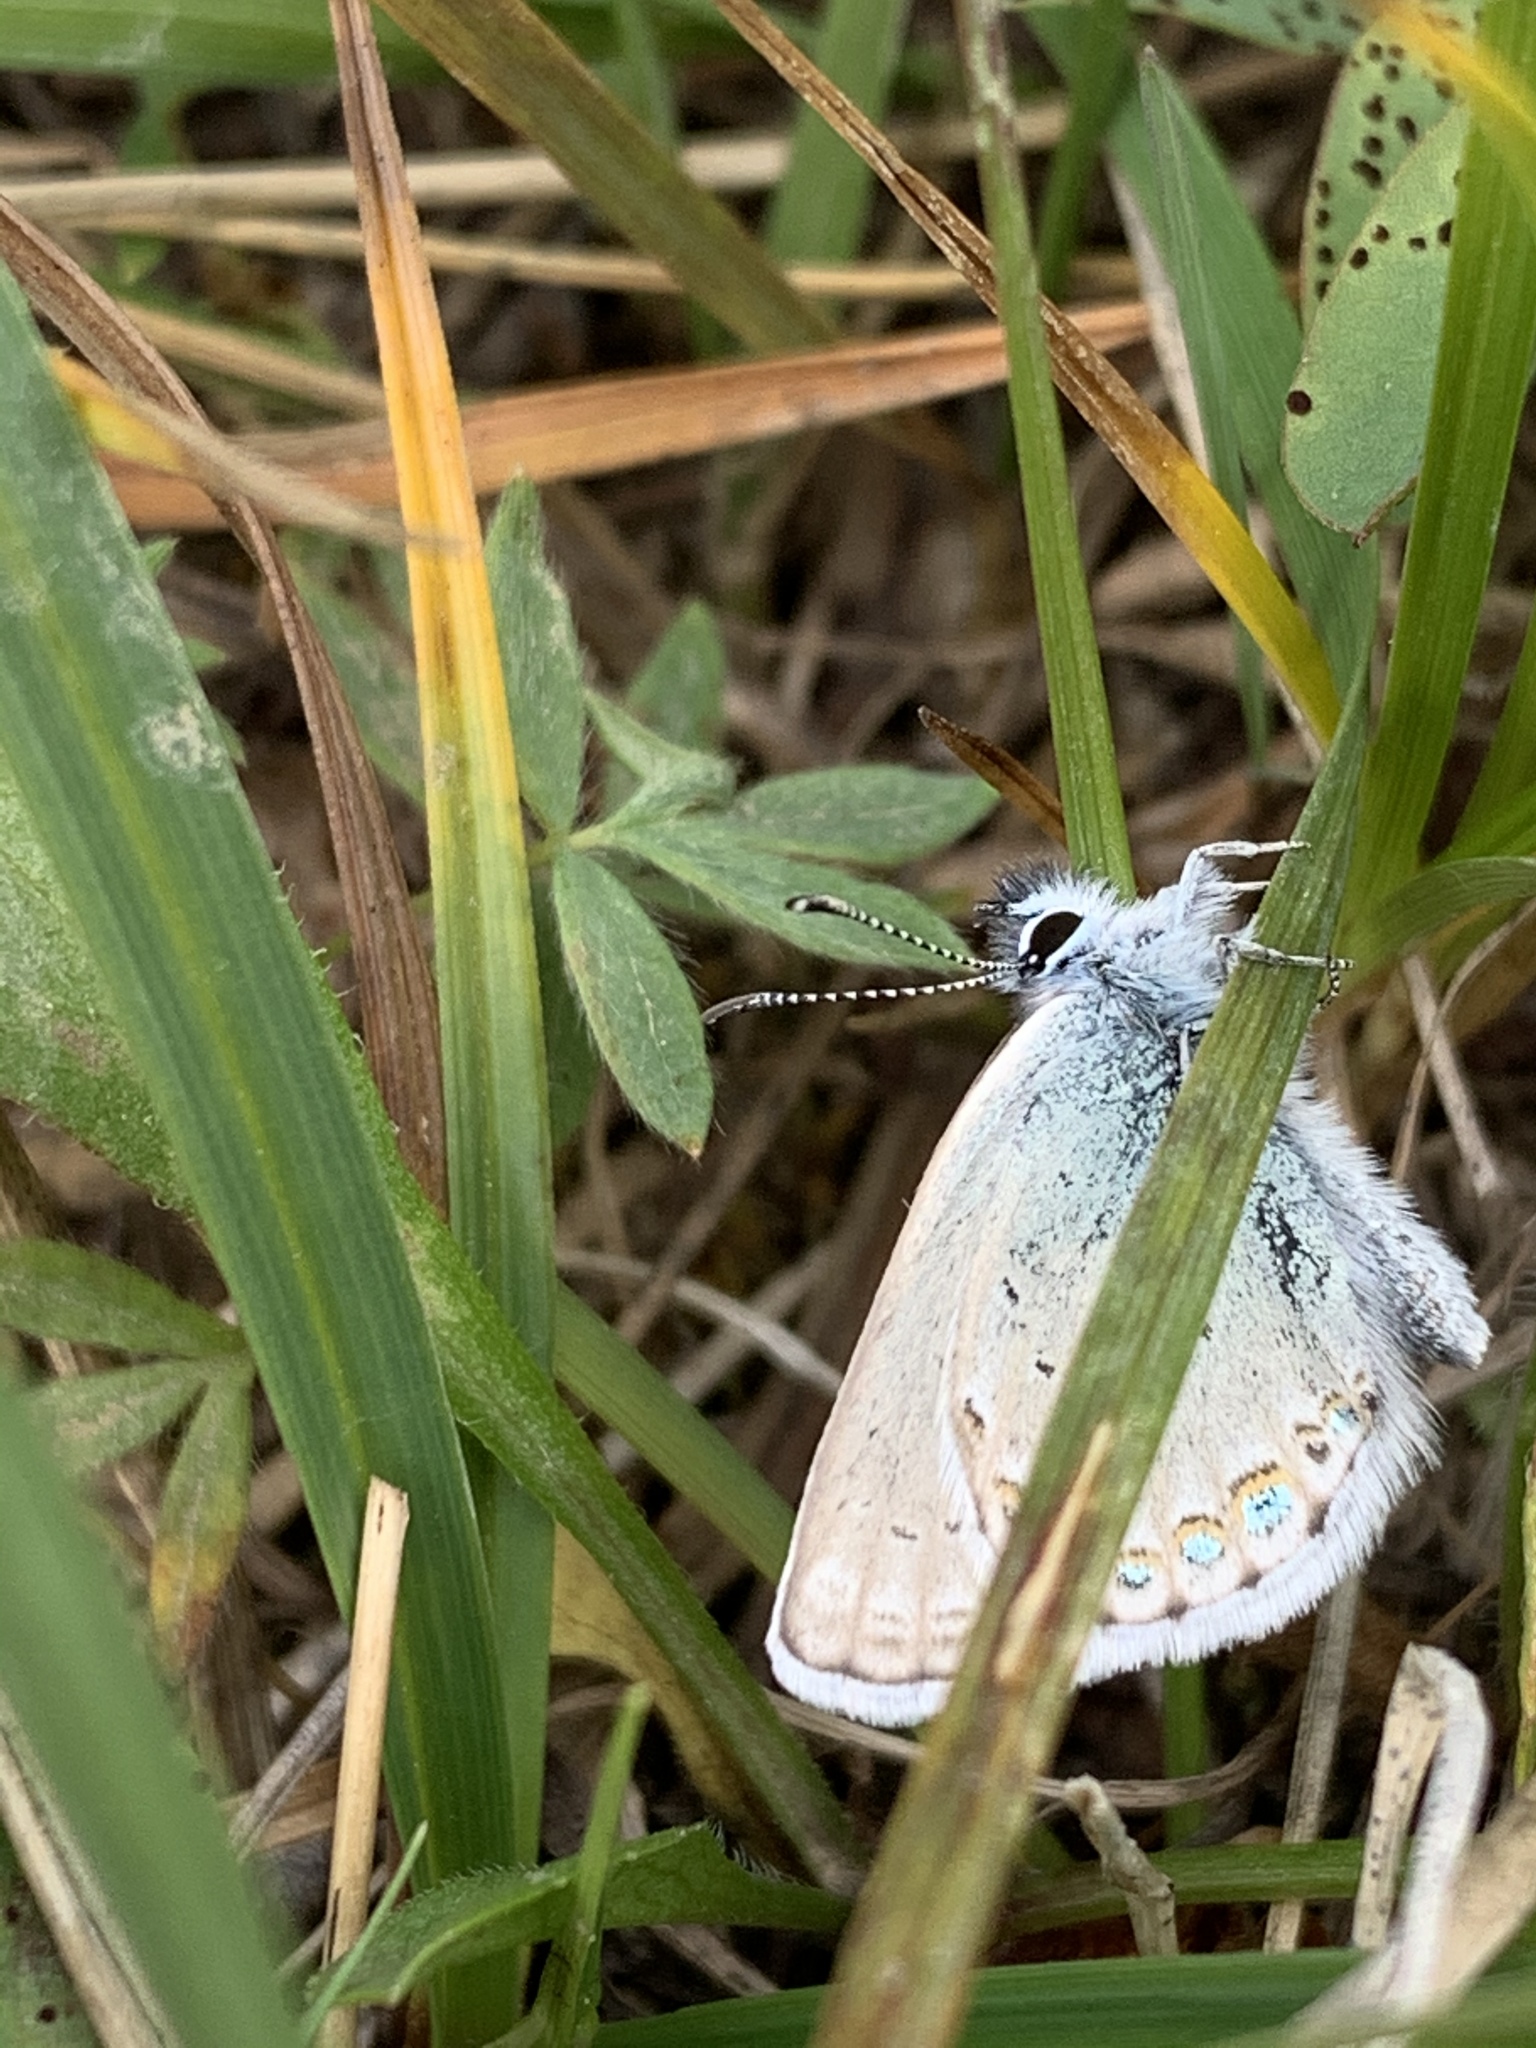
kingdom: Animalia
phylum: Arthropoda
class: Insecta
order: Lepidoptera
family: Lycaenidae
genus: Lycaeides
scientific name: Lycaeides idas
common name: Northern blue
